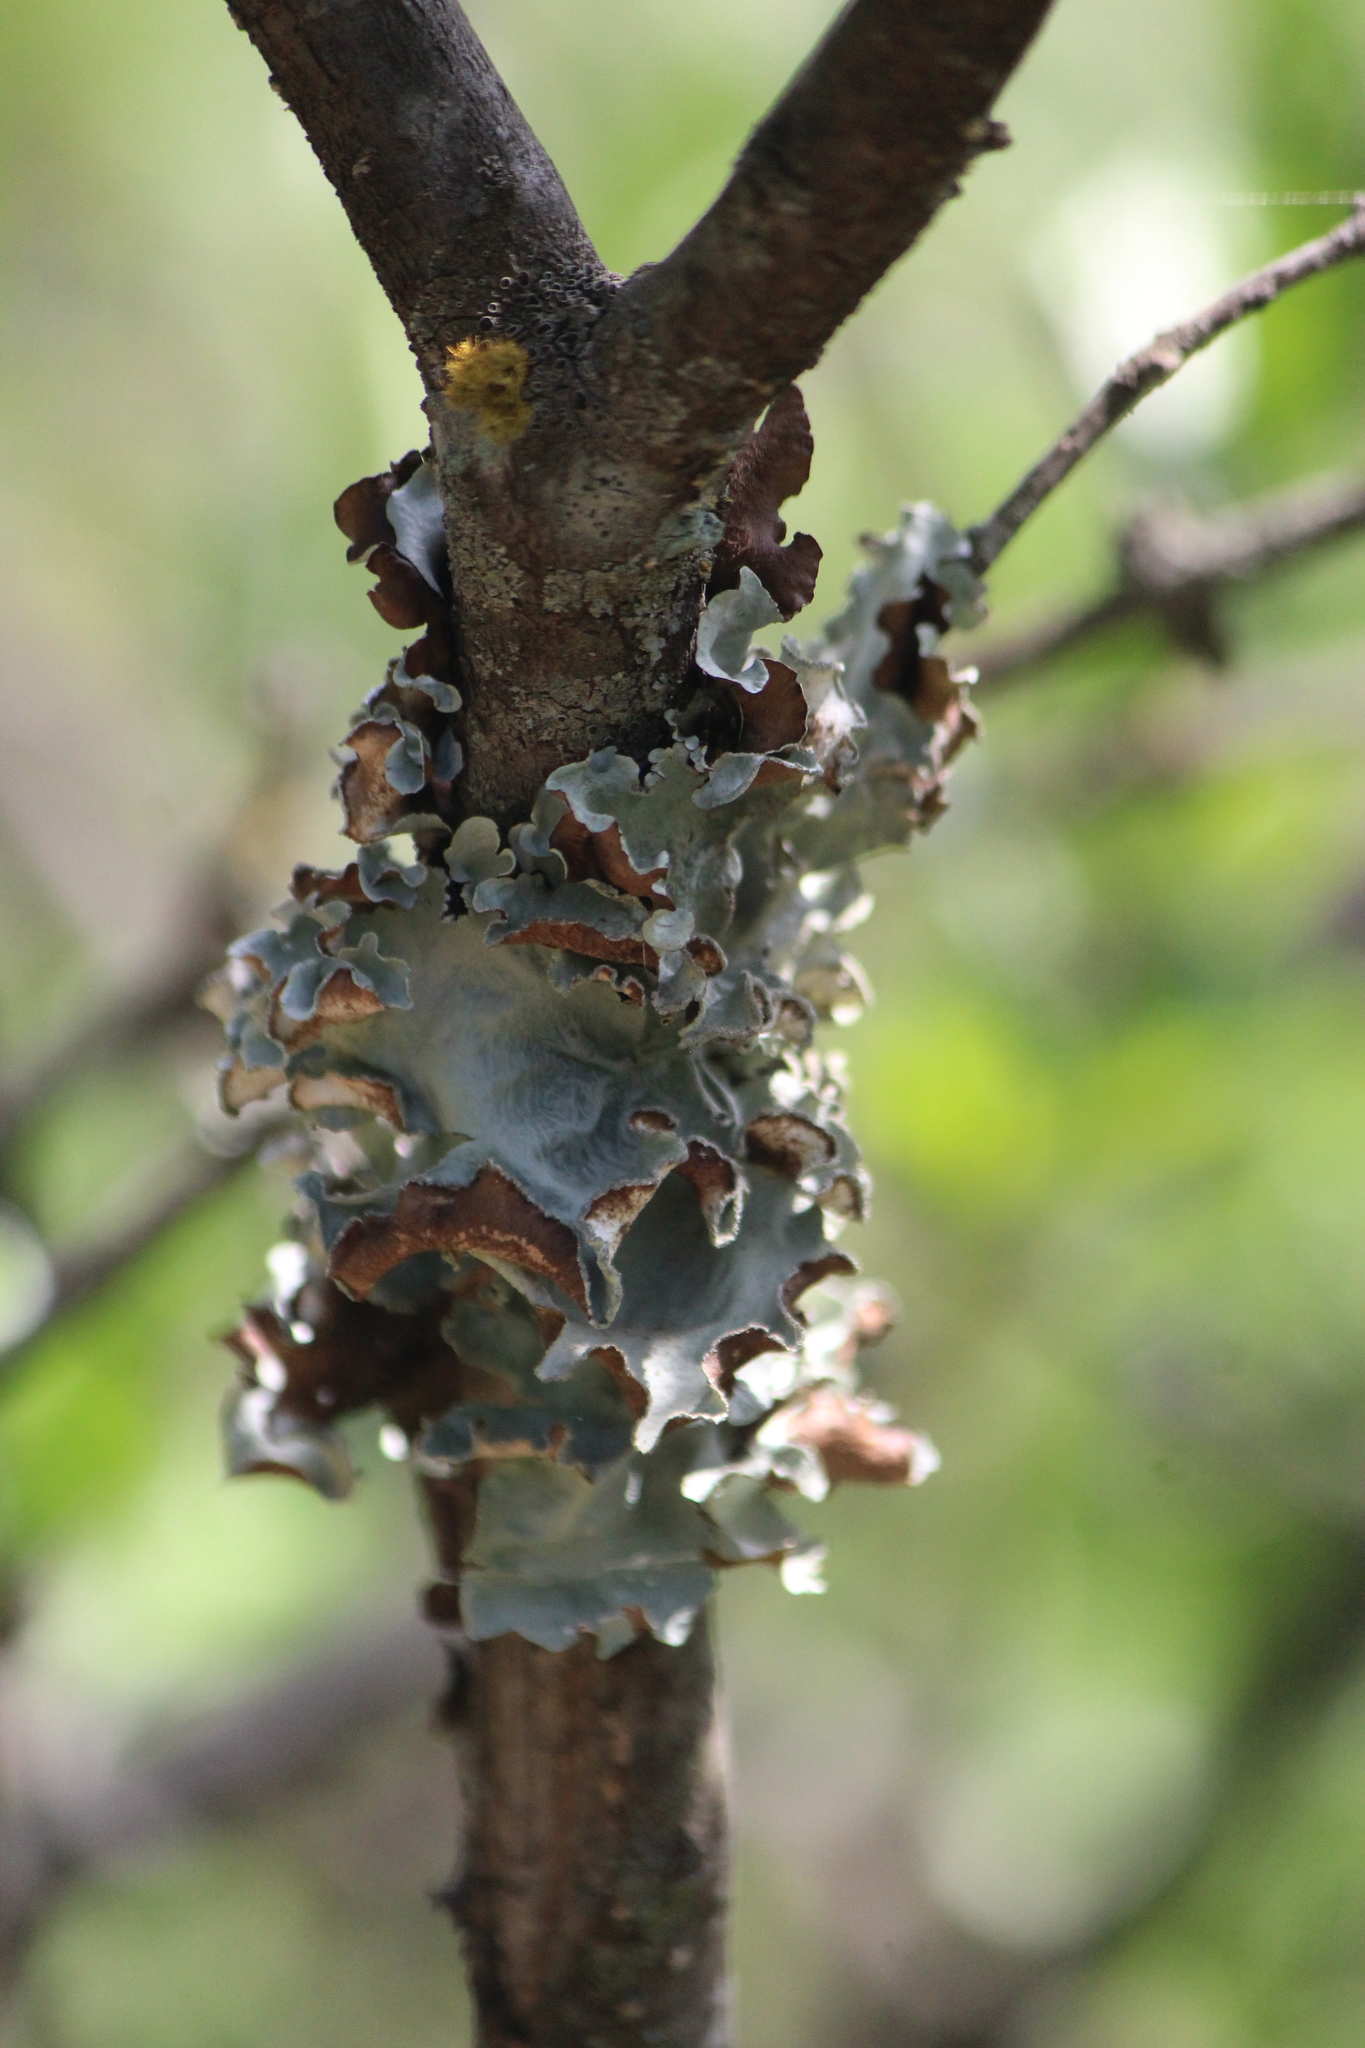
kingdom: Fungi
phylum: Ascomycota
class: Lecanoromycetes
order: Lecanorales
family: Parmeliaceae
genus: Parmotrema
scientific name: Parmotrema austrosinense
